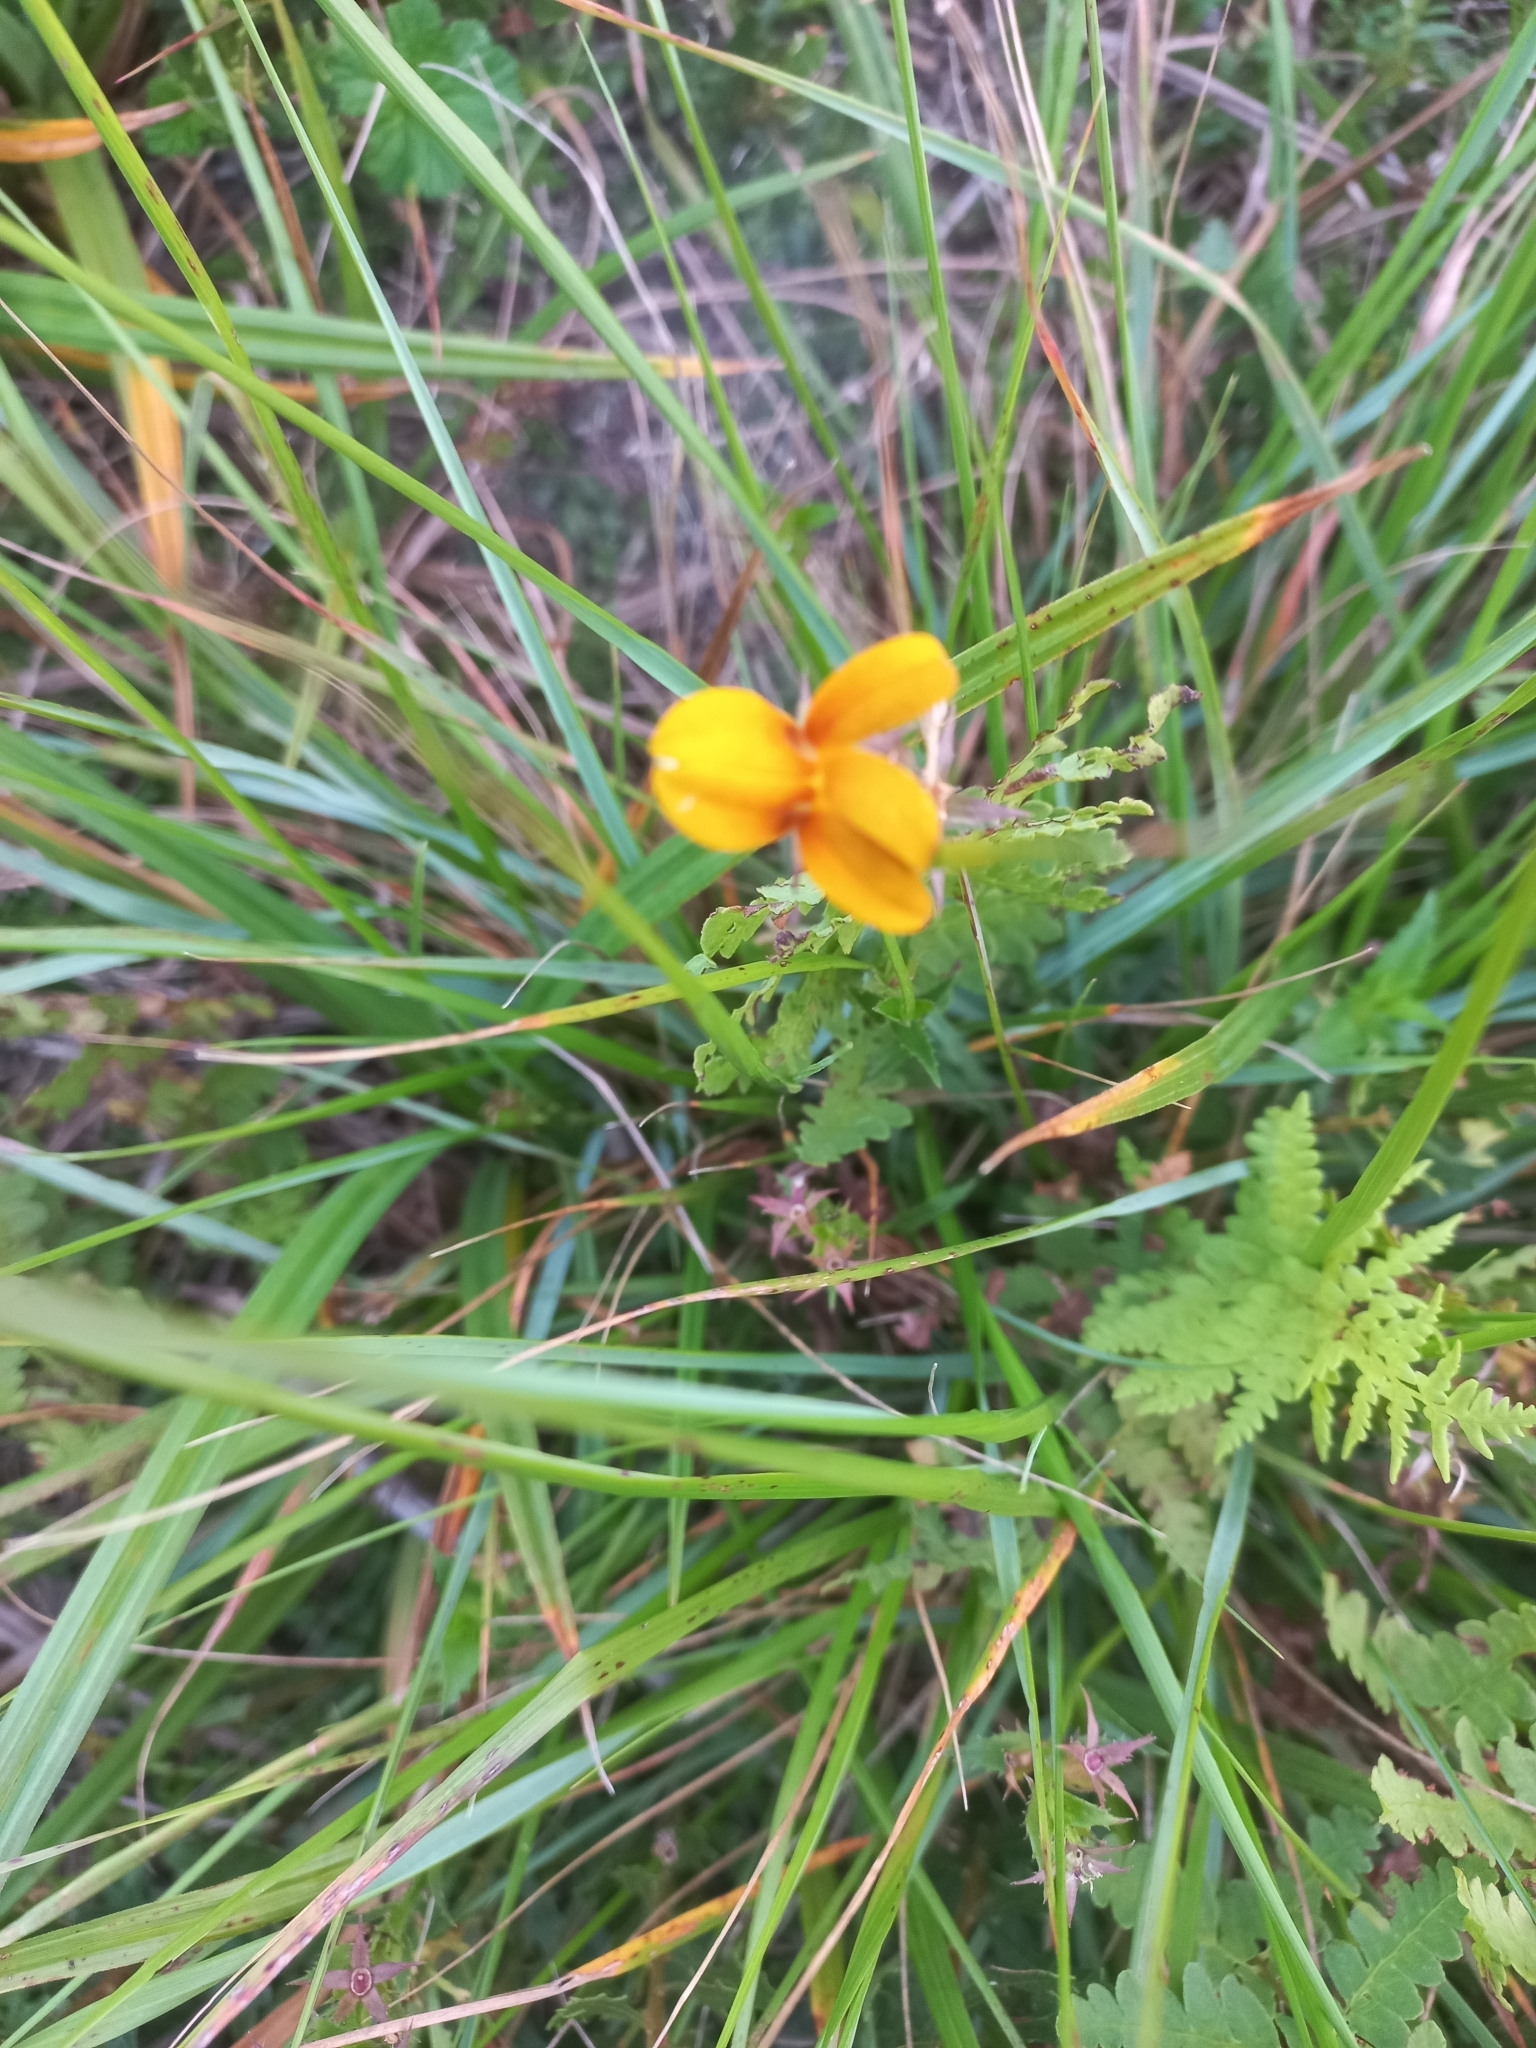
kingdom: Plantae
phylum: Tracheophyta
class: Magnoliopsida
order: Asterales
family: Campanulaceae
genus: Monopsis
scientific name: Monopsis lutea
